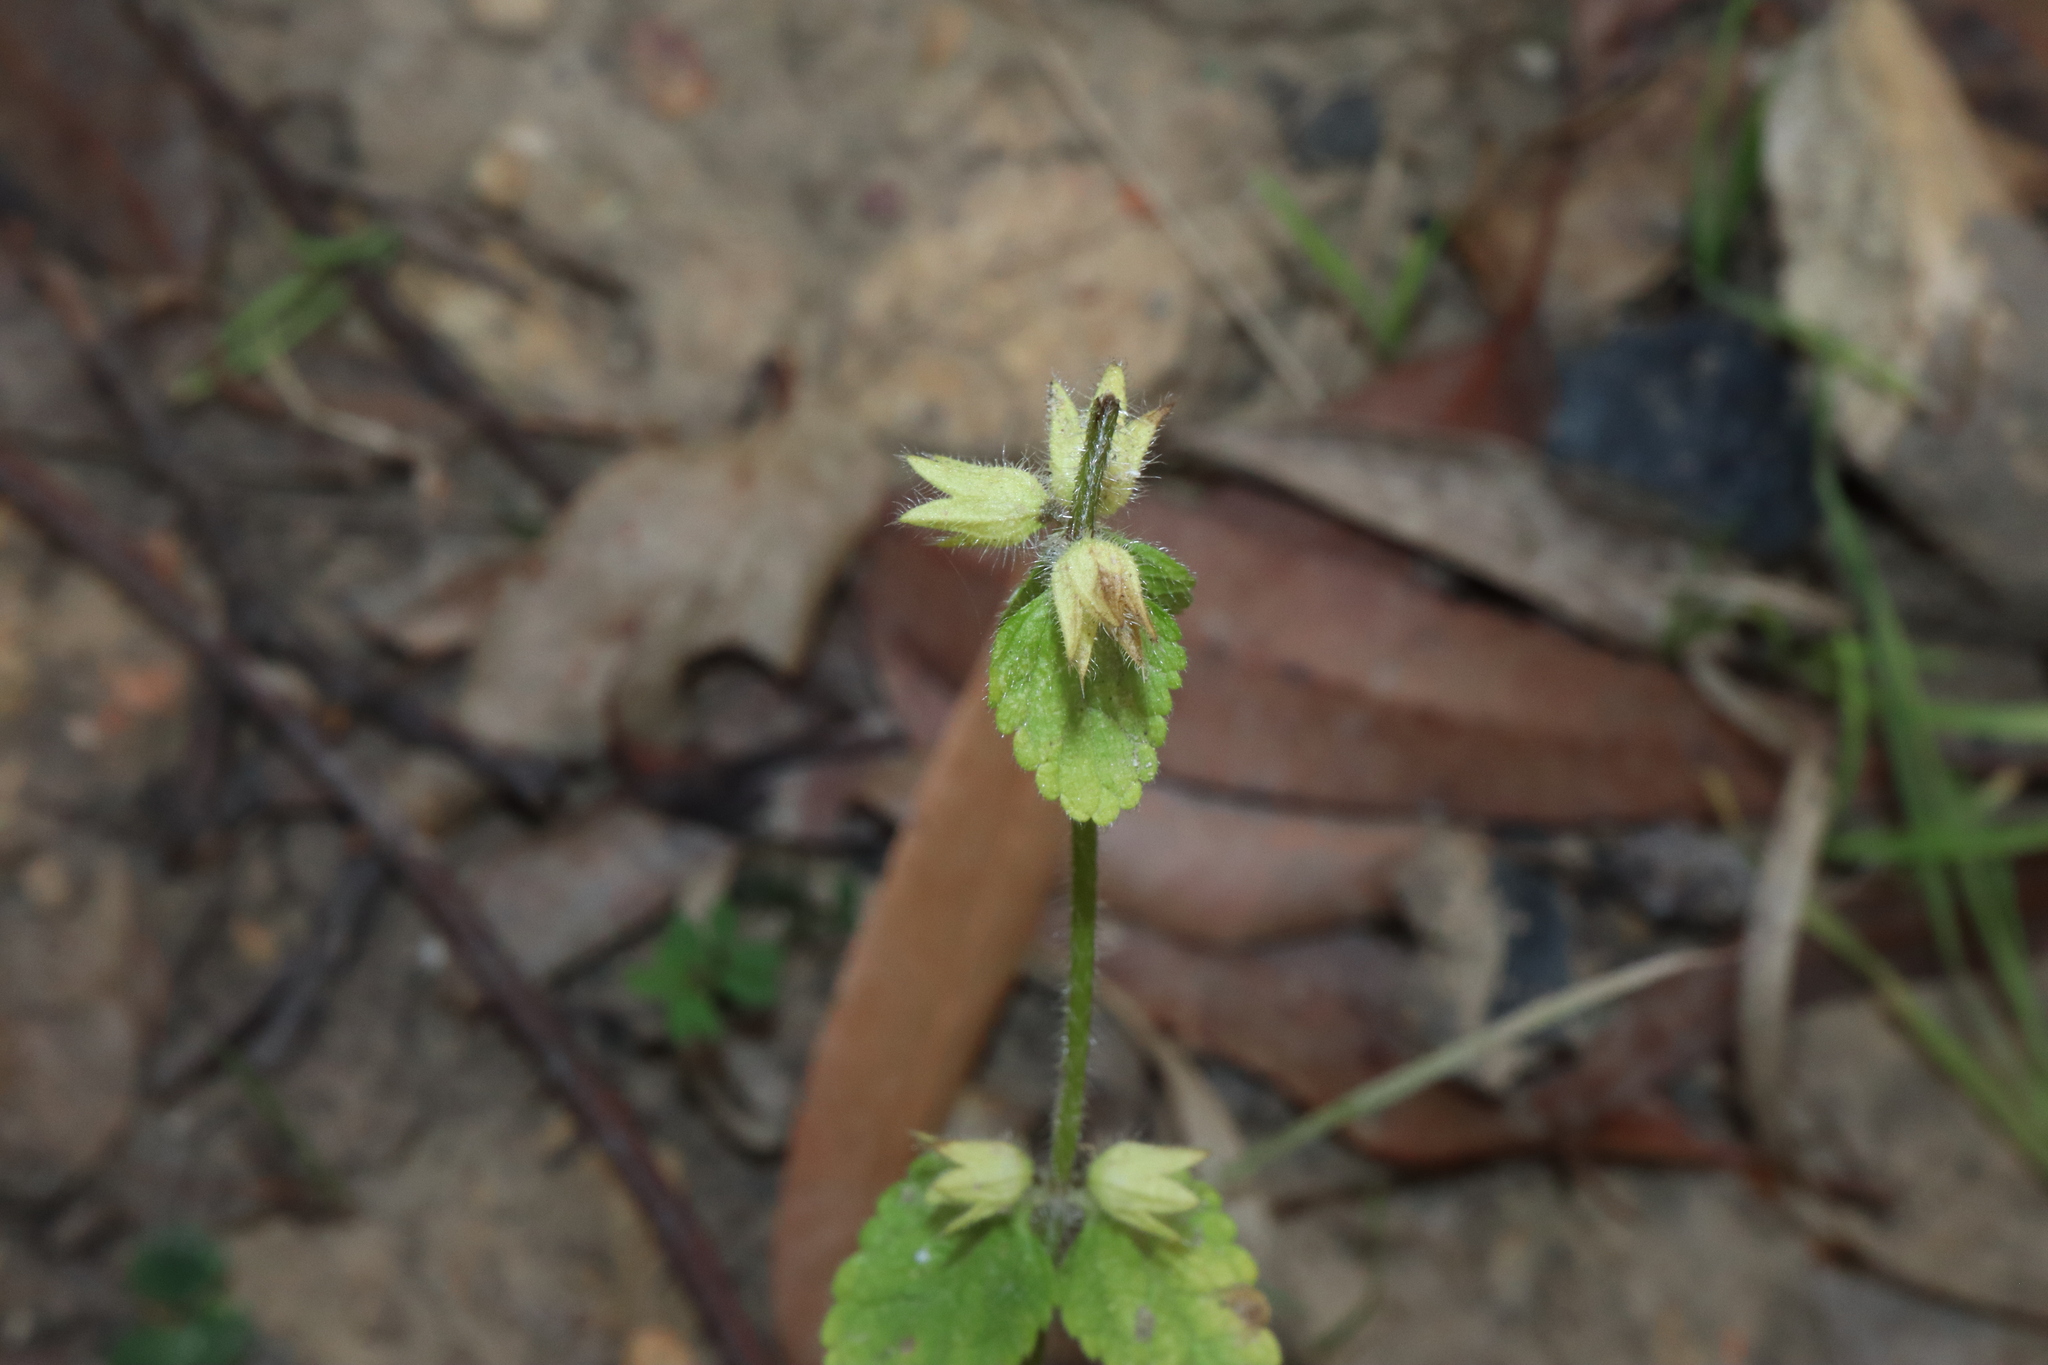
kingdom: Plantae
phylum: Tracheophyta
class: Magnoliopsida
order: Lamiales
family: Lamiaceae
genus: Stachys
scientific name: Stachys arvensis
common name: Field woundwort
